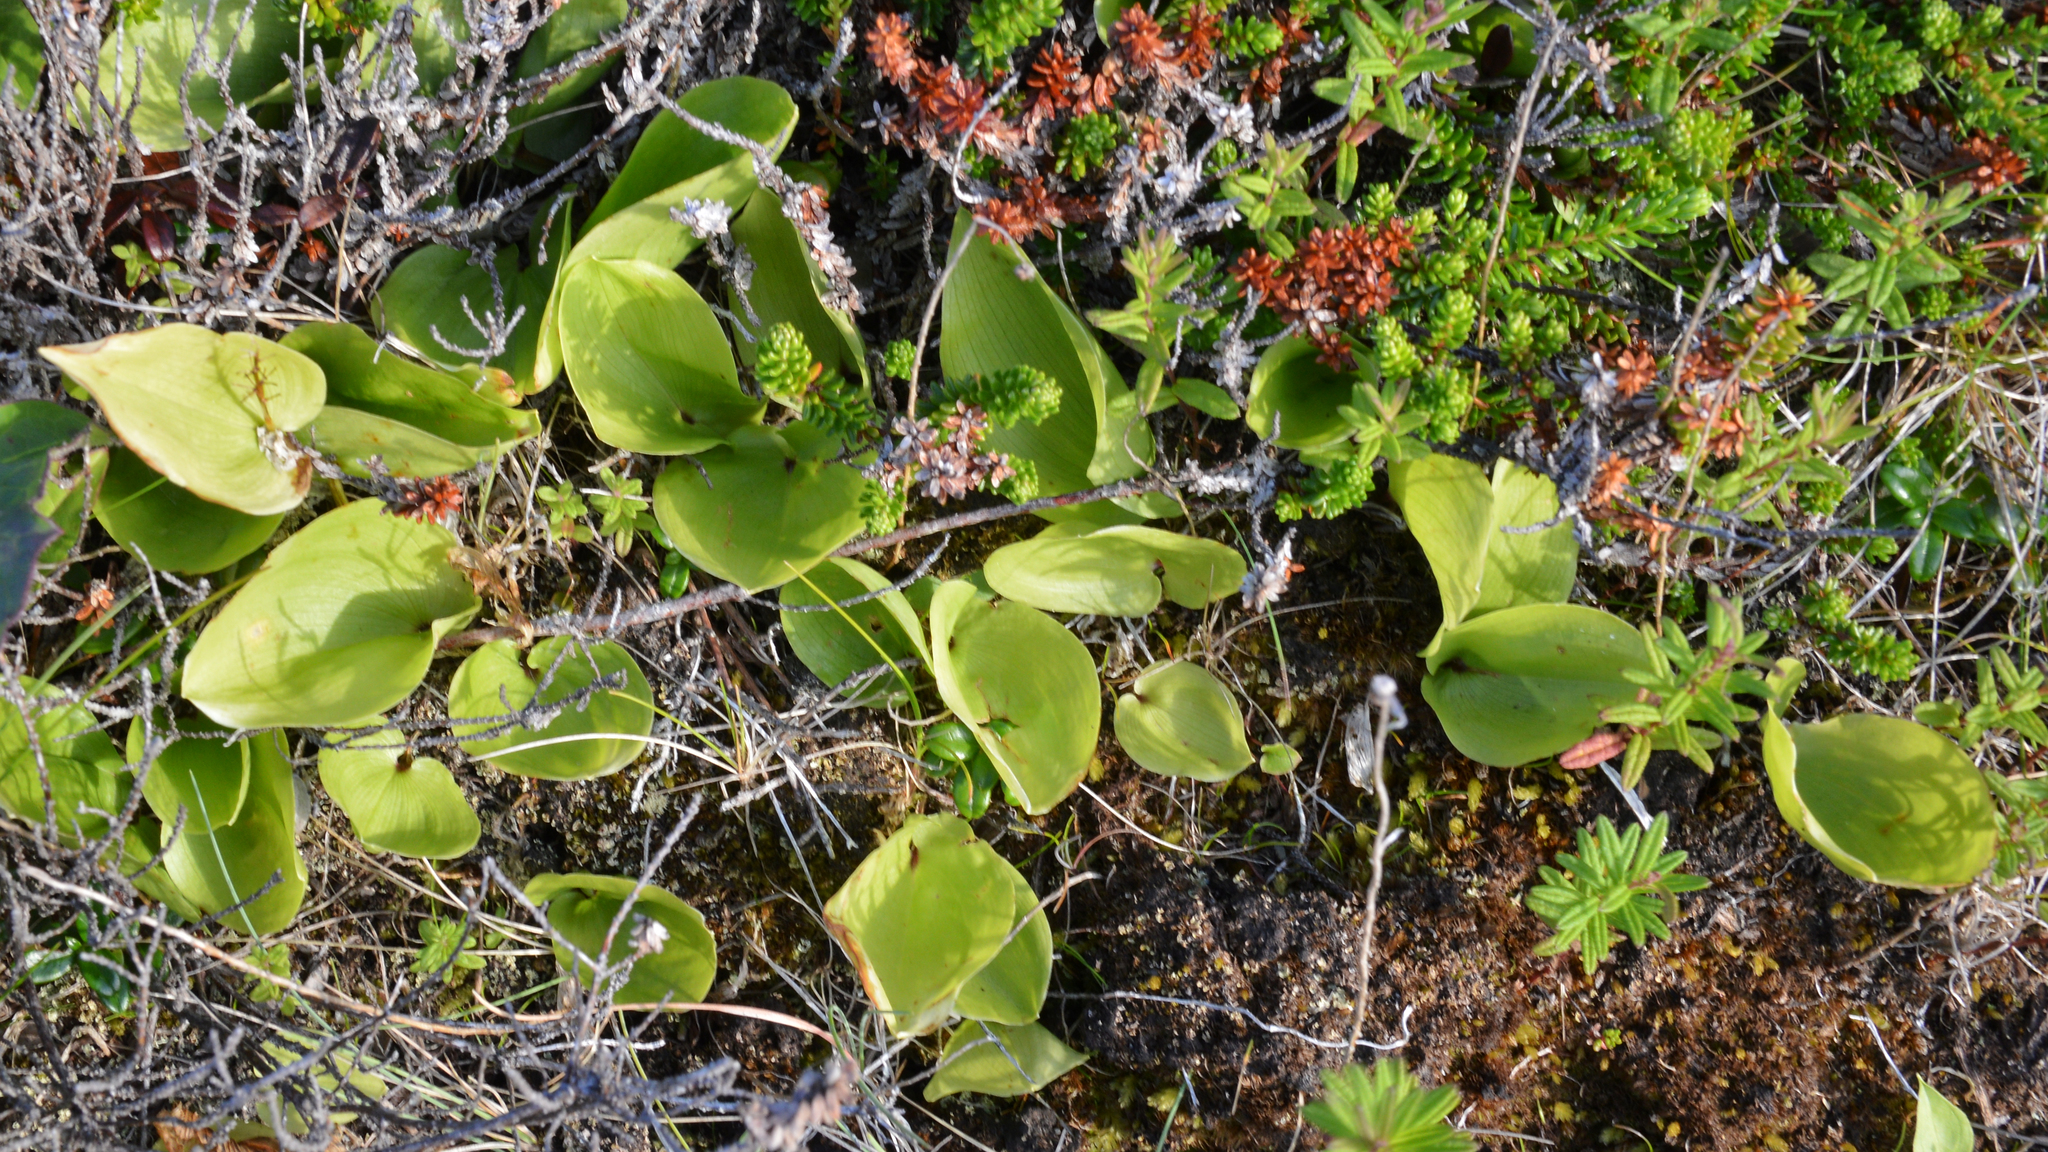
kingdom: Plantae
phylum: Tracheophyta
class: Liliopsida
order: Asparagales
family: Asparagaceae
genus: Maianthemum
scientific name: Maianthemum canadense
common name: False lily-of-the-valley
